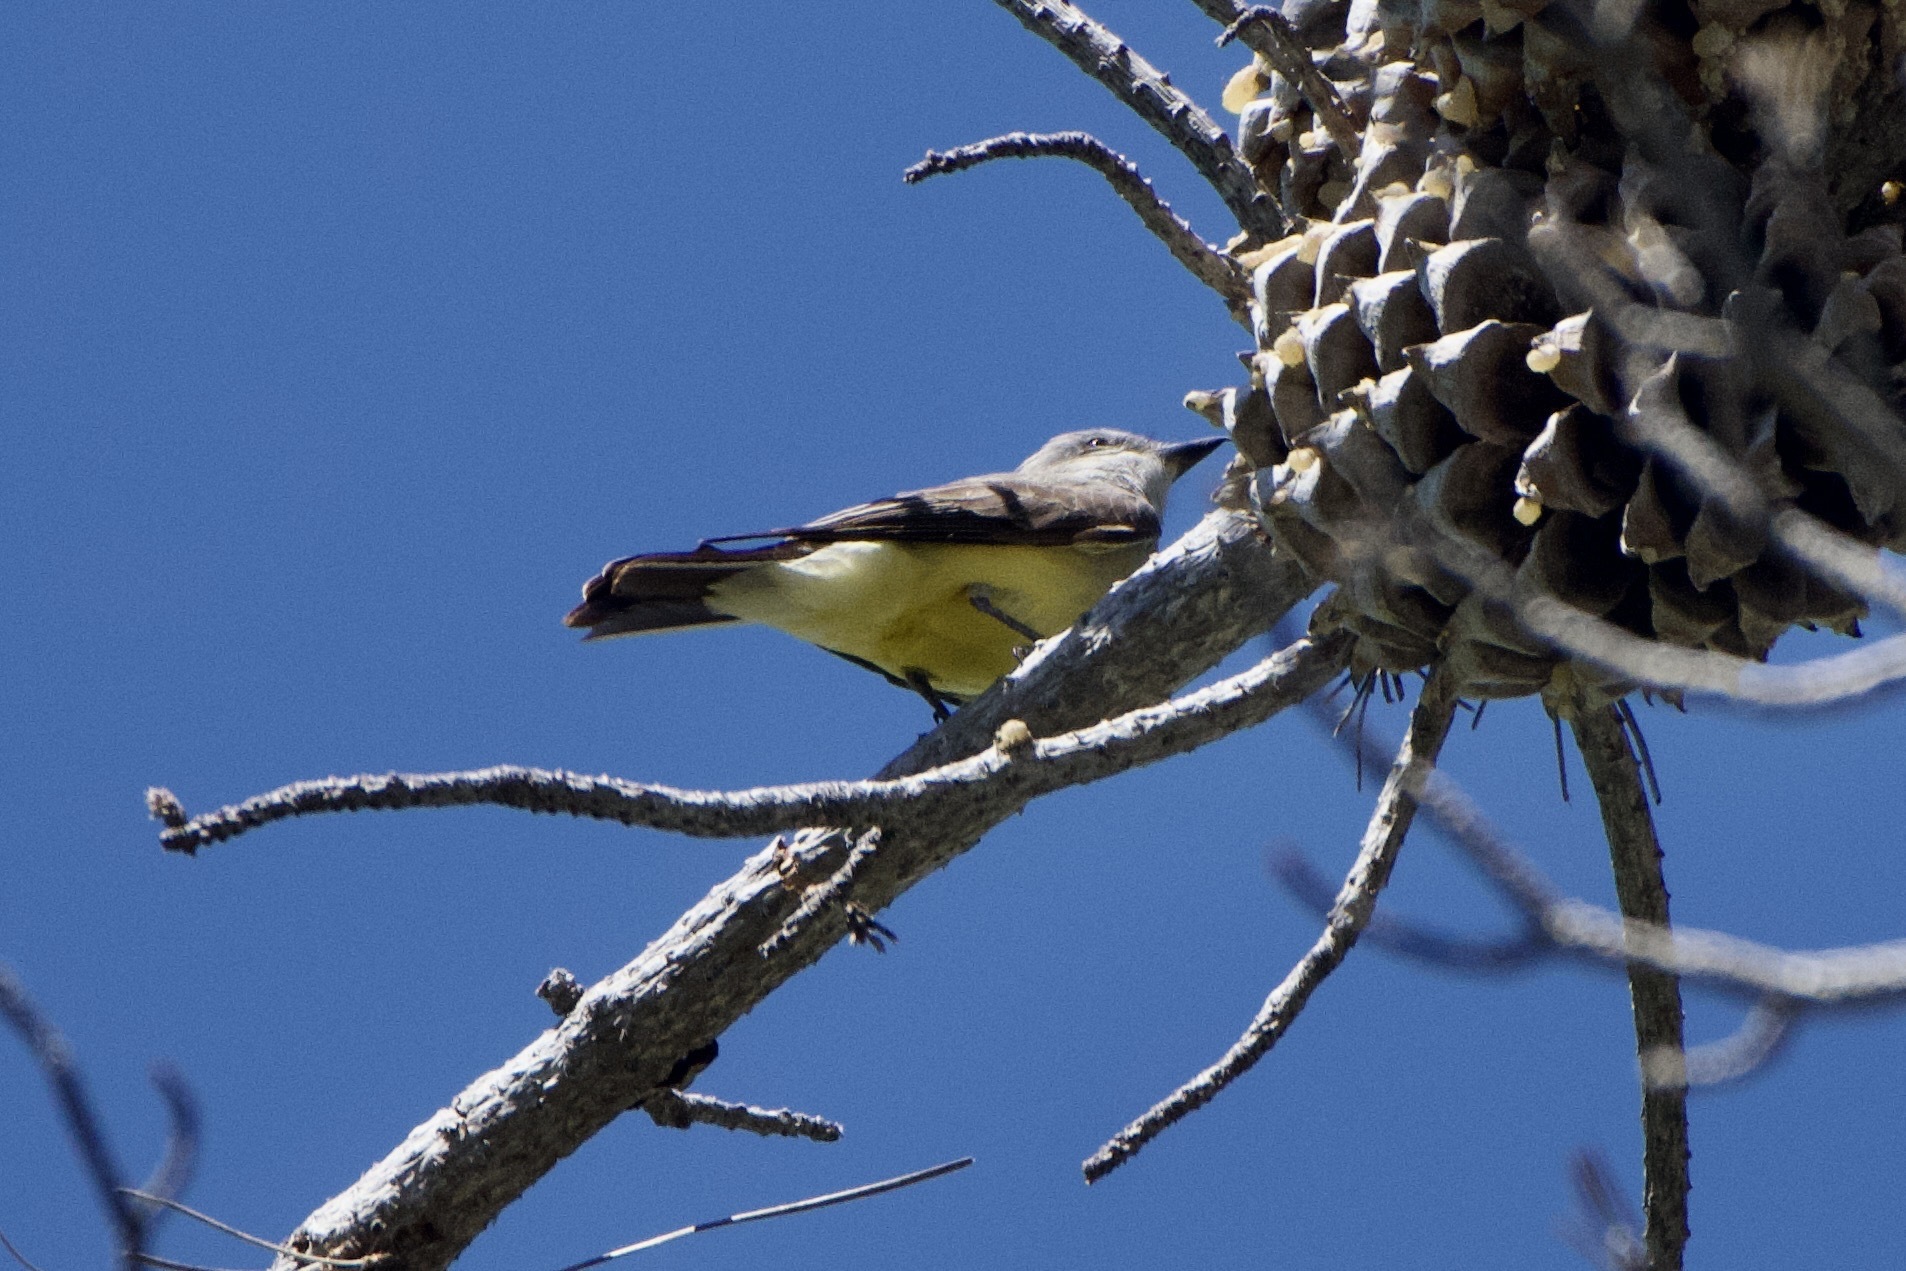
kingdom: Animalia
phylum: Chordata
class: Aves
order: Passeriformes
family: Tyrannidae
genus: Tyrannus
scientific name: Tyrannus verticalis
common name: Western kingbird
